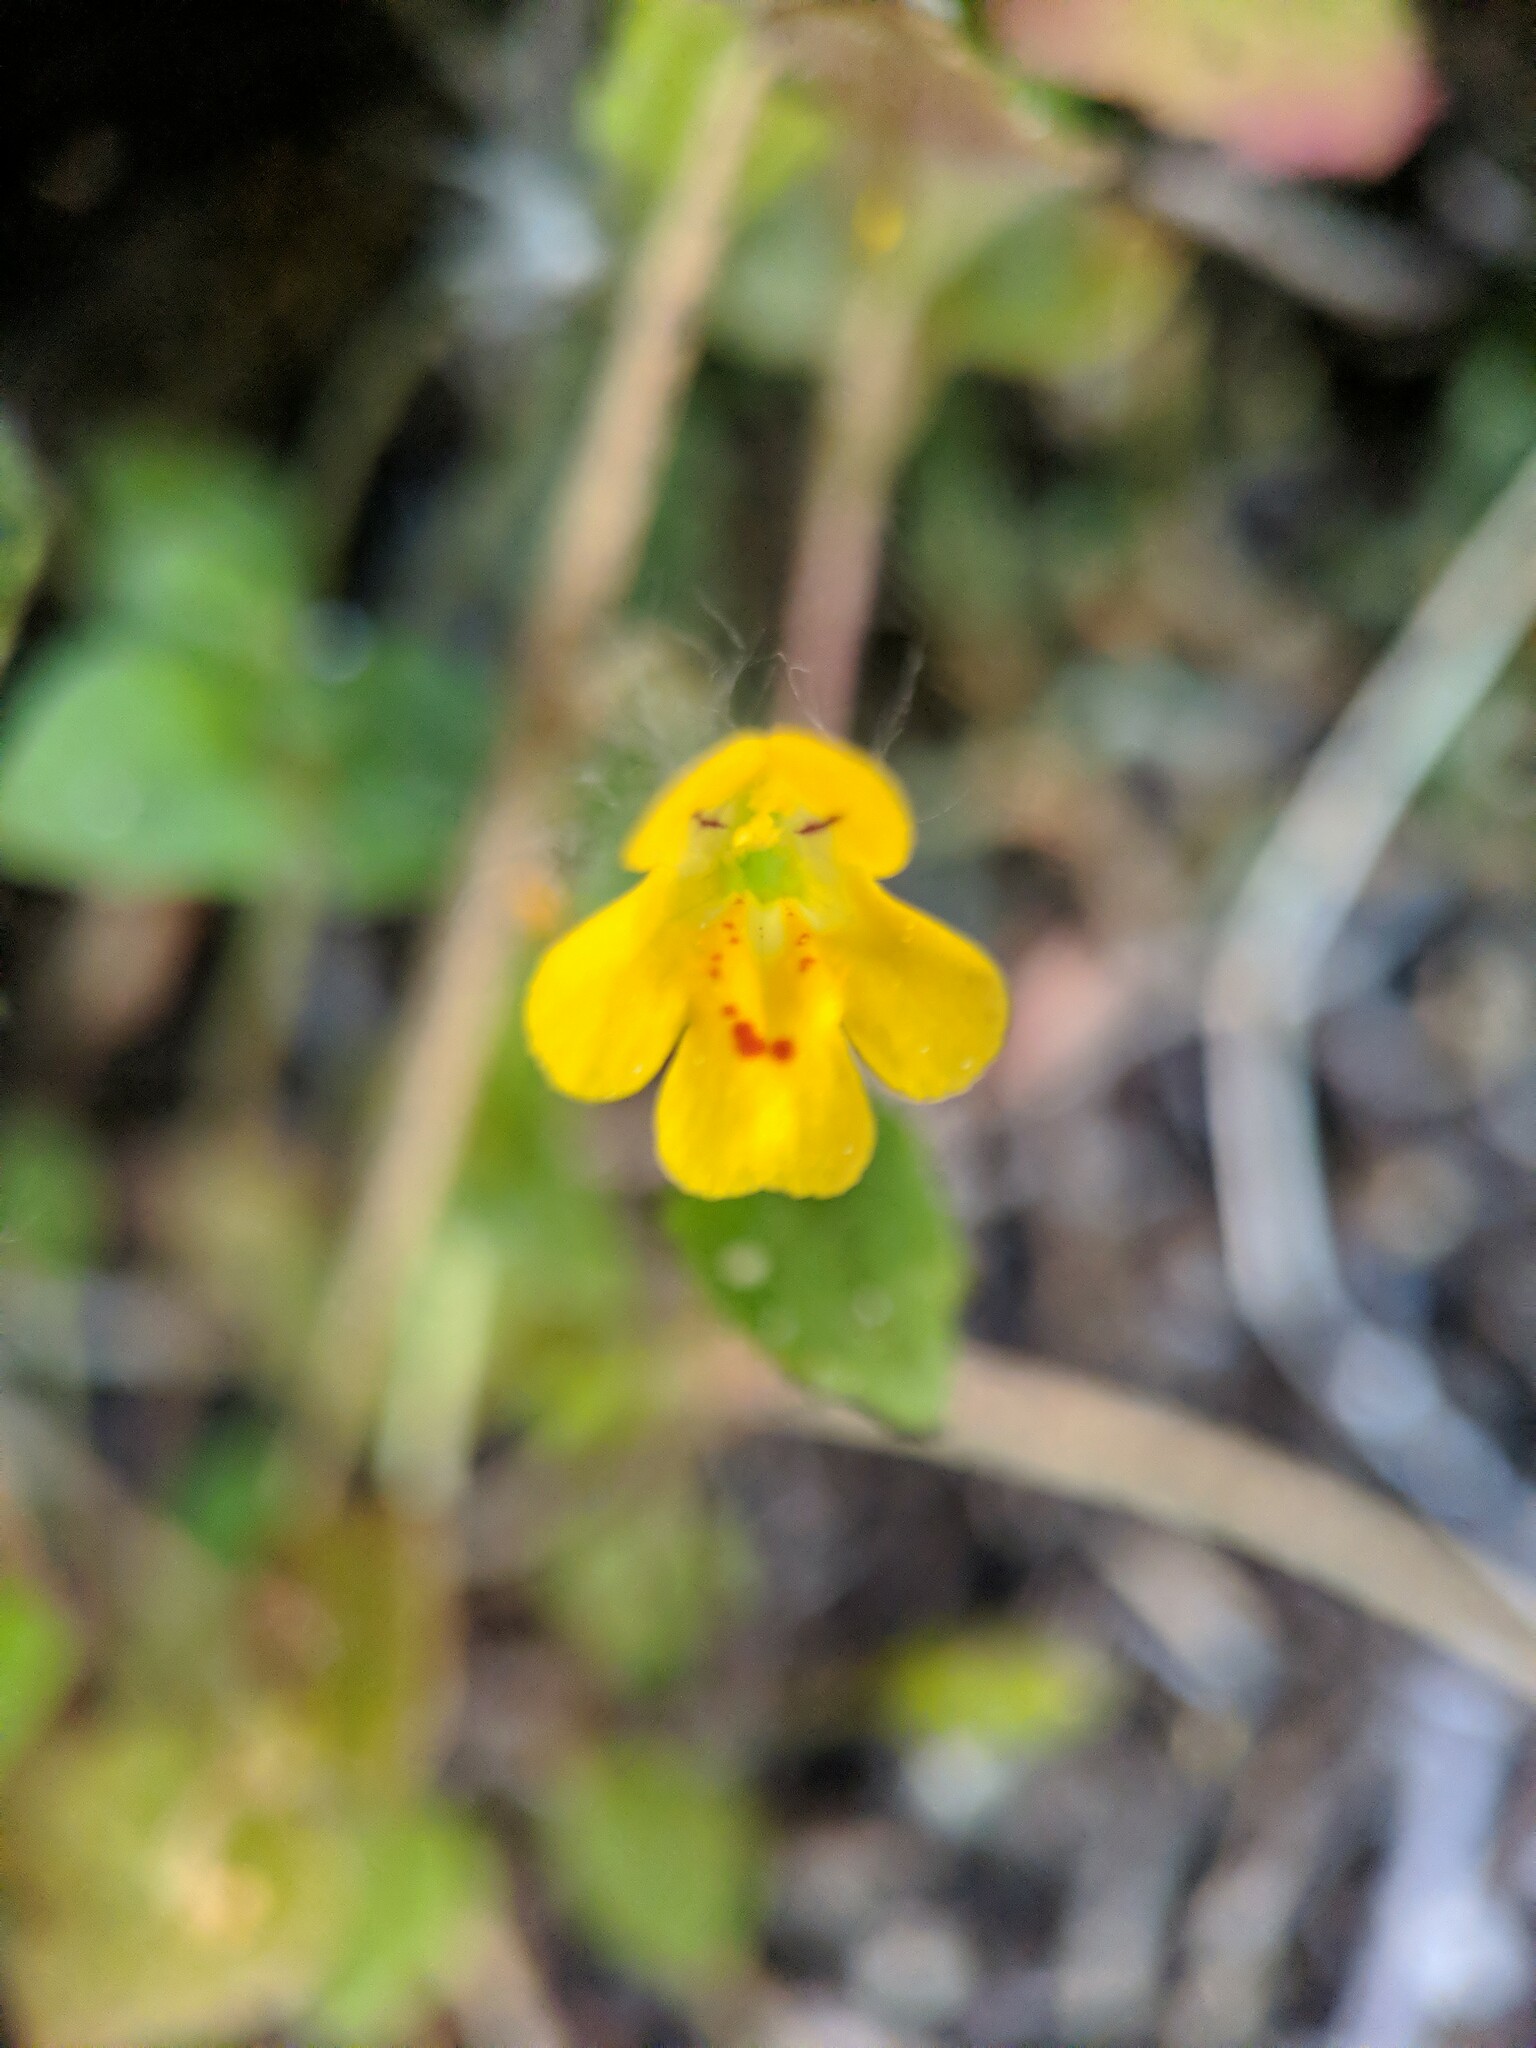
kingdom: Plantae
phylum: Tracheophyta
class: Magnoliopsida
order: Lamiales
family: Phrymaceae
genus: Erythranthe
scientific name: Erythranthe alsinoides
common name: Chickweed monkeyflower
